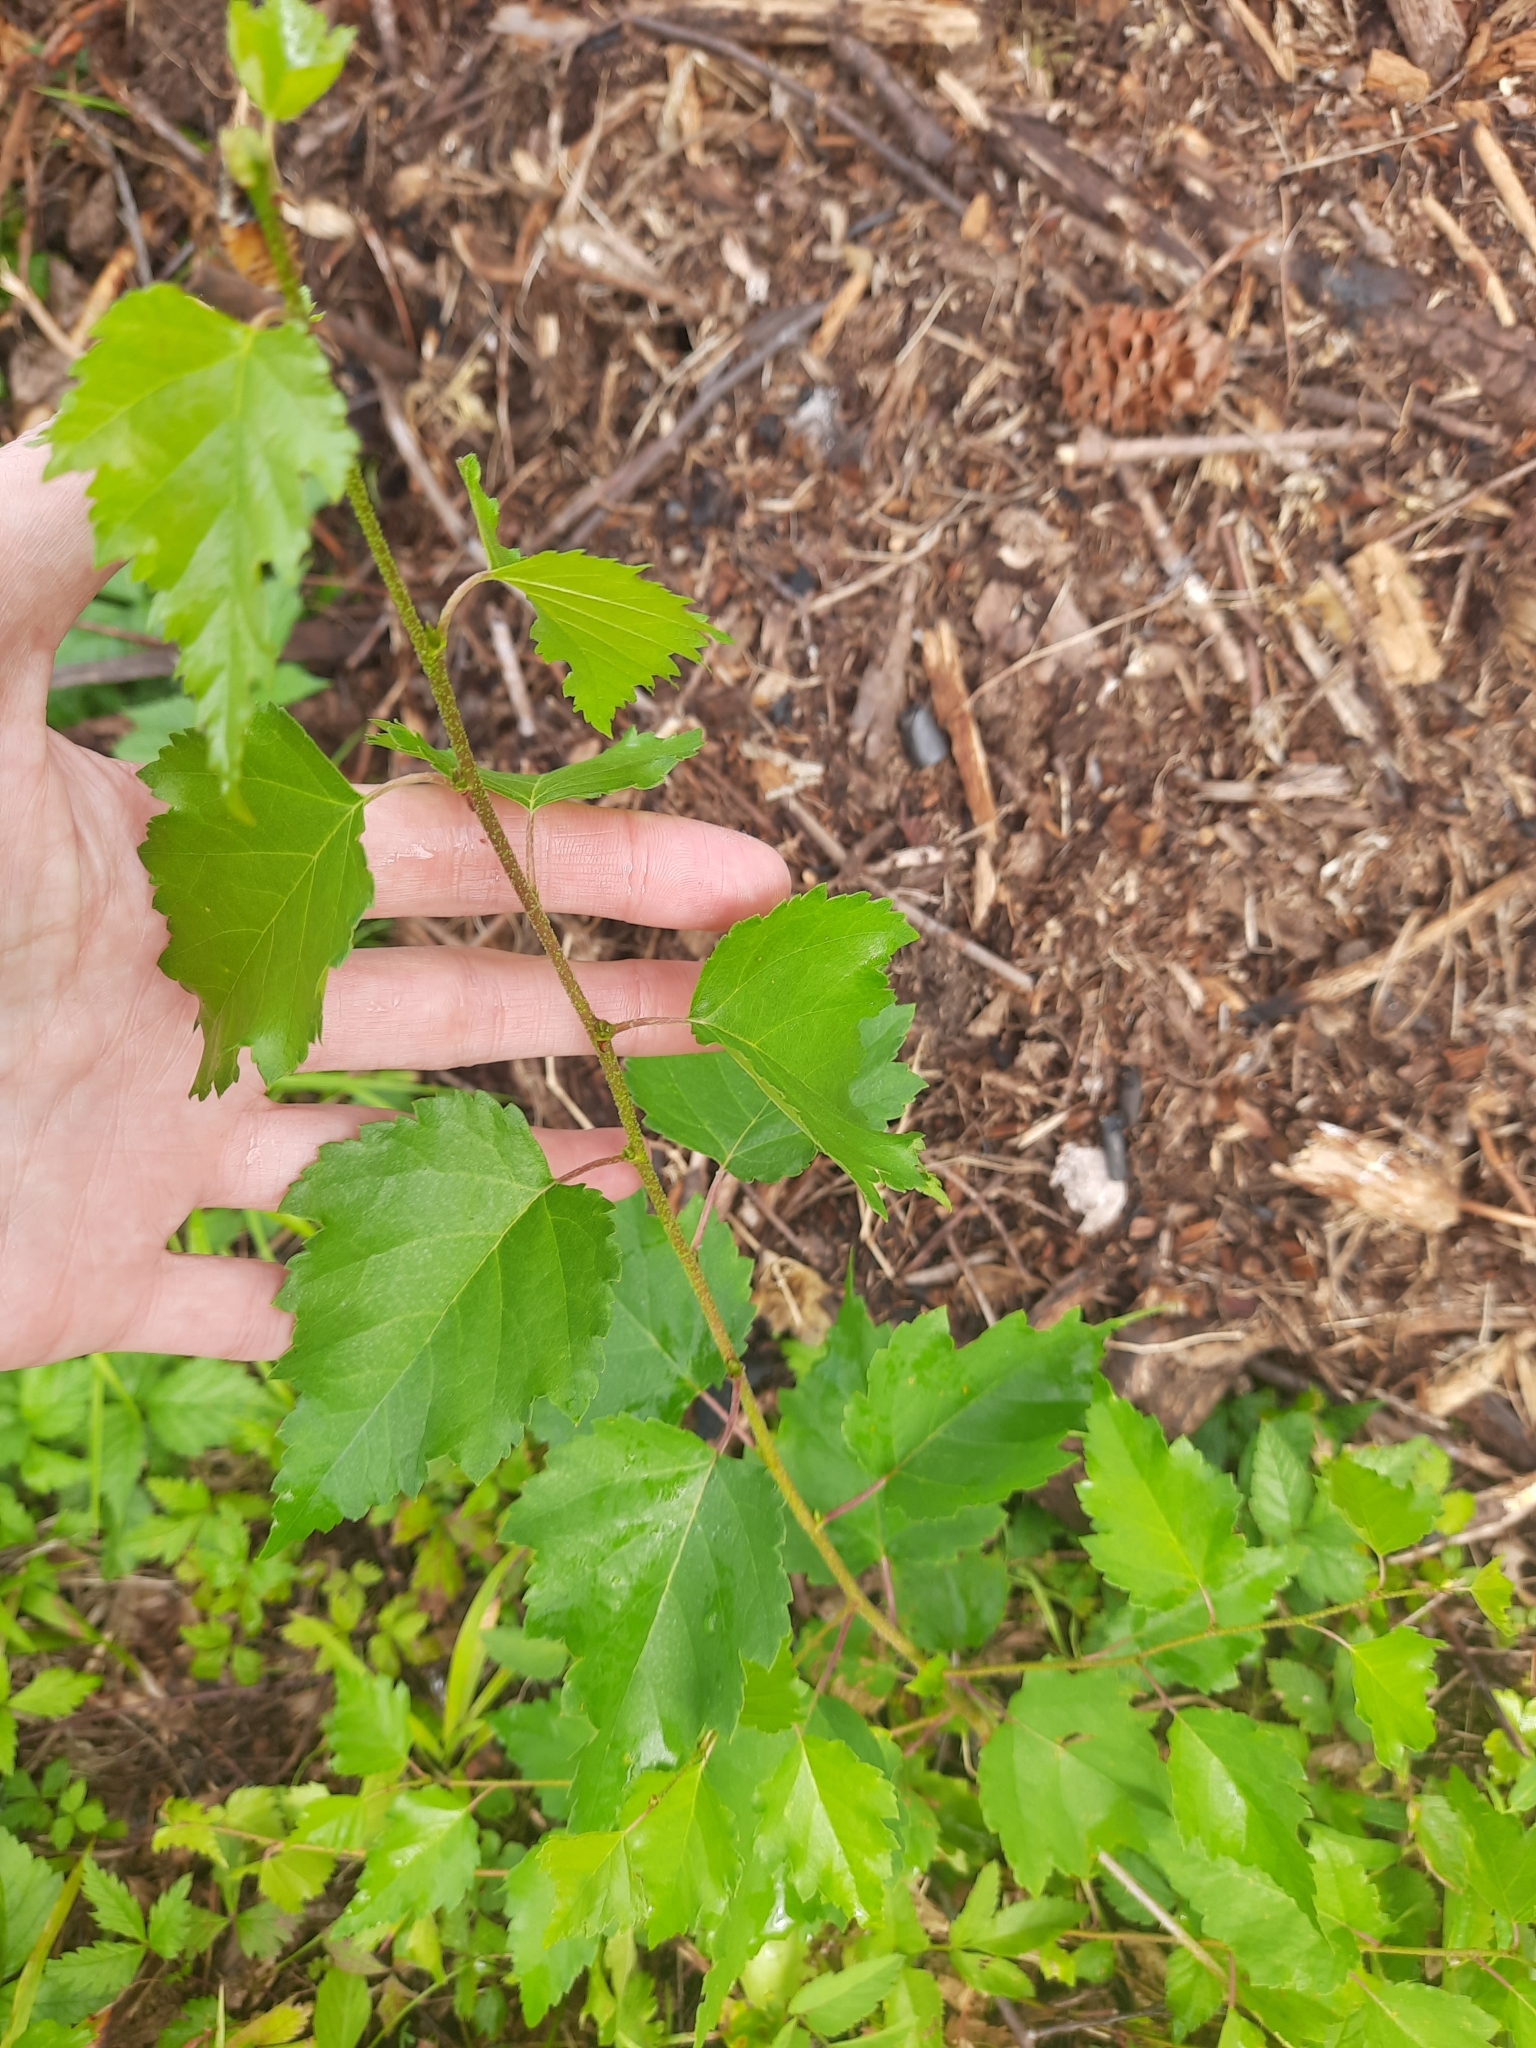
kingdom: Plantae
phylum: Tracheophyta
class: Magnoliopsida
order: Fagales
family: Betulaceae
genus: Betula
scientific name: Betula pendula
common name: Silver birch
